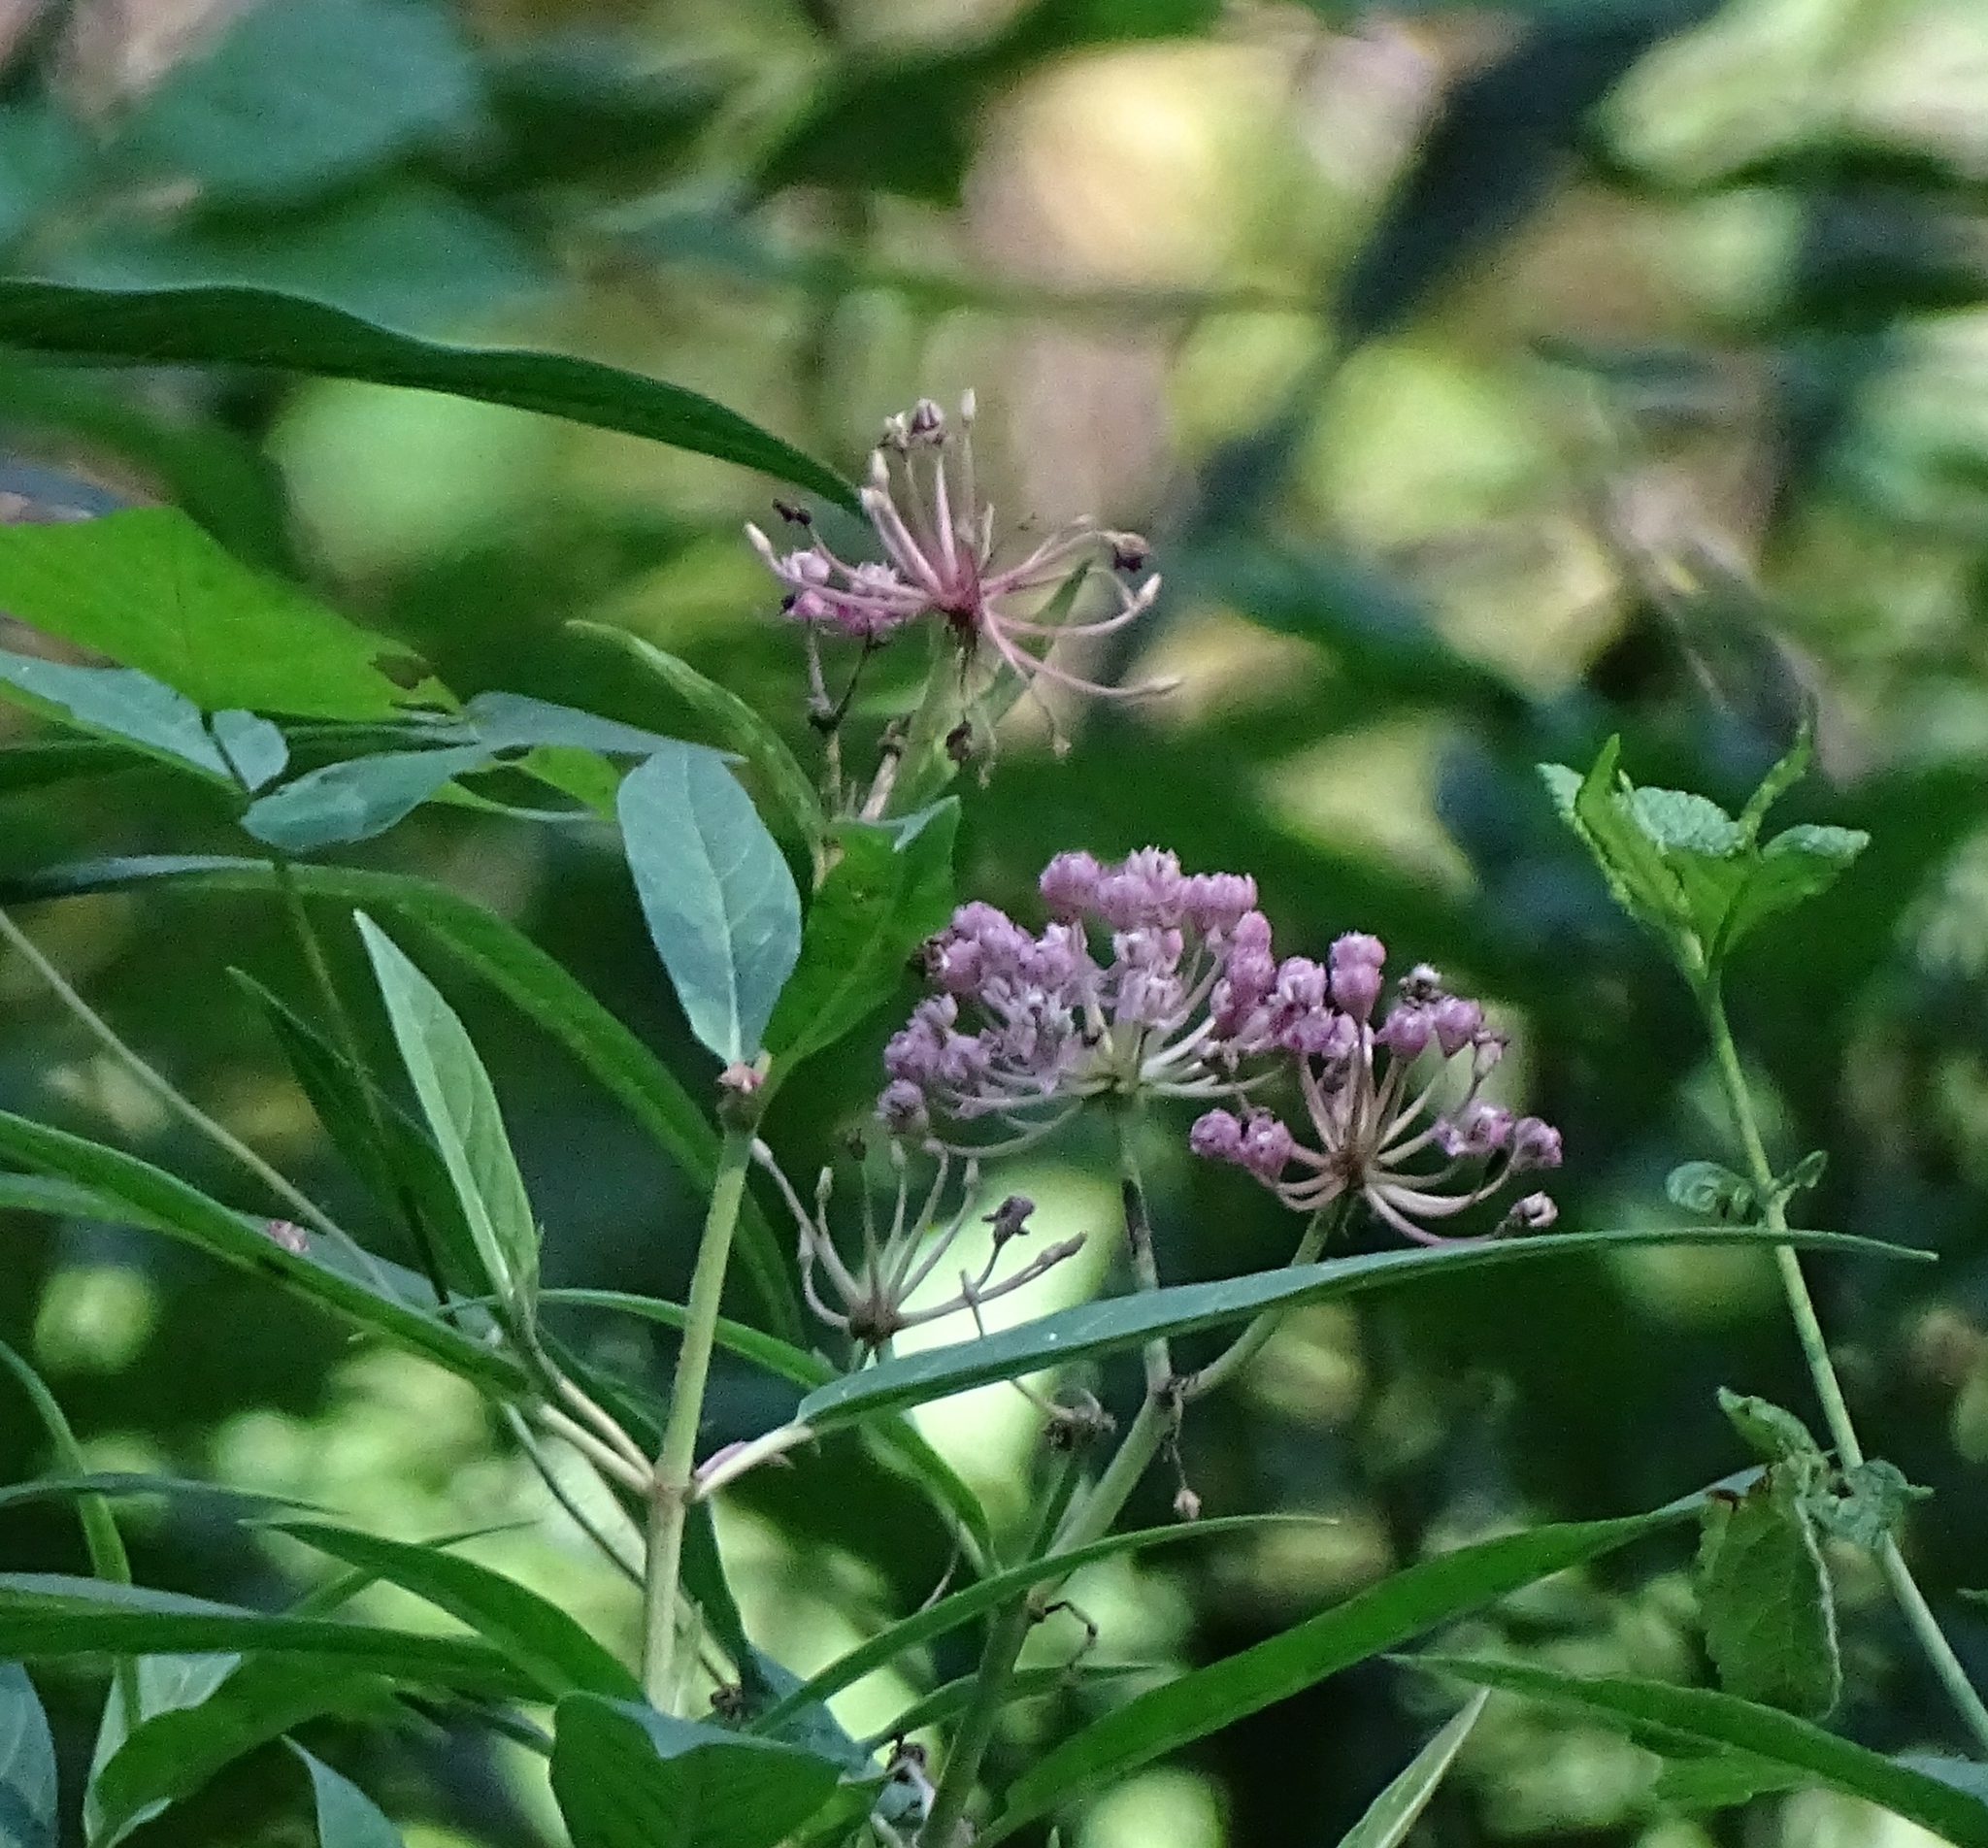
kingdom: Plantae
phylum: Tracheophyta
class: Magnoliopsida
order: Gentianales
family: Apocynaceae
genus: Asclepias
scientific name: Asclepias incarnata
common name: Swamp milkweed
